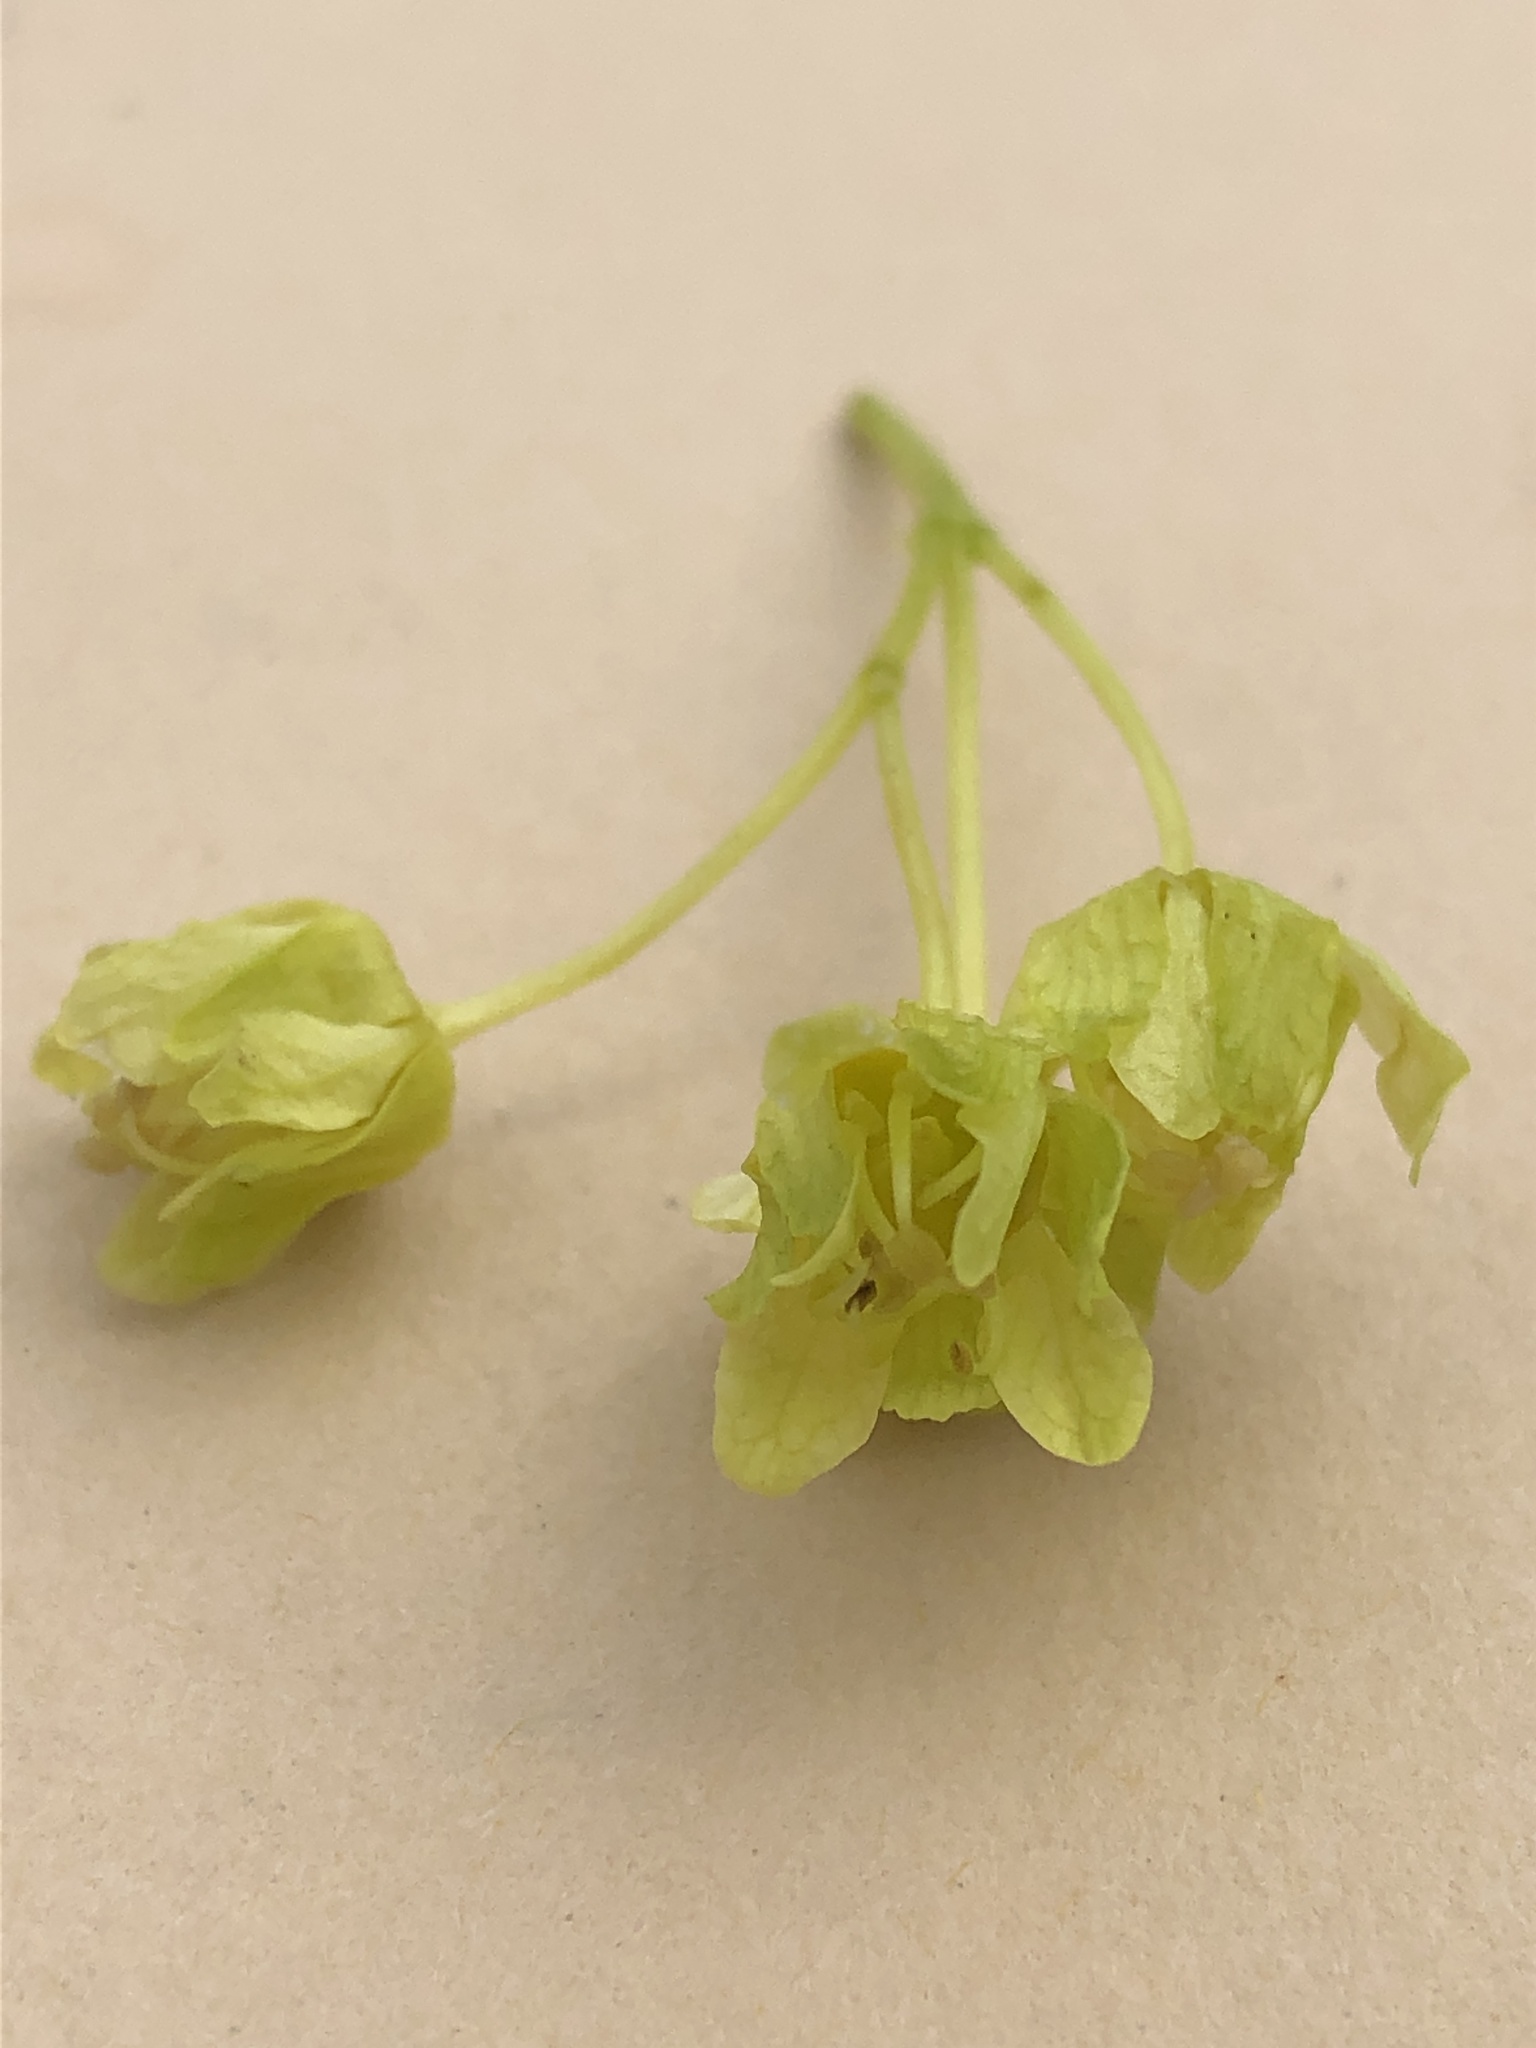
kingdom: Plantae
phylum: Tracheophyta
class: Magnoliopsida
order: Sapindales
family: Sapindaceae
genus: Acer
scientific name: Acer platanoides
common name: Norway maple
